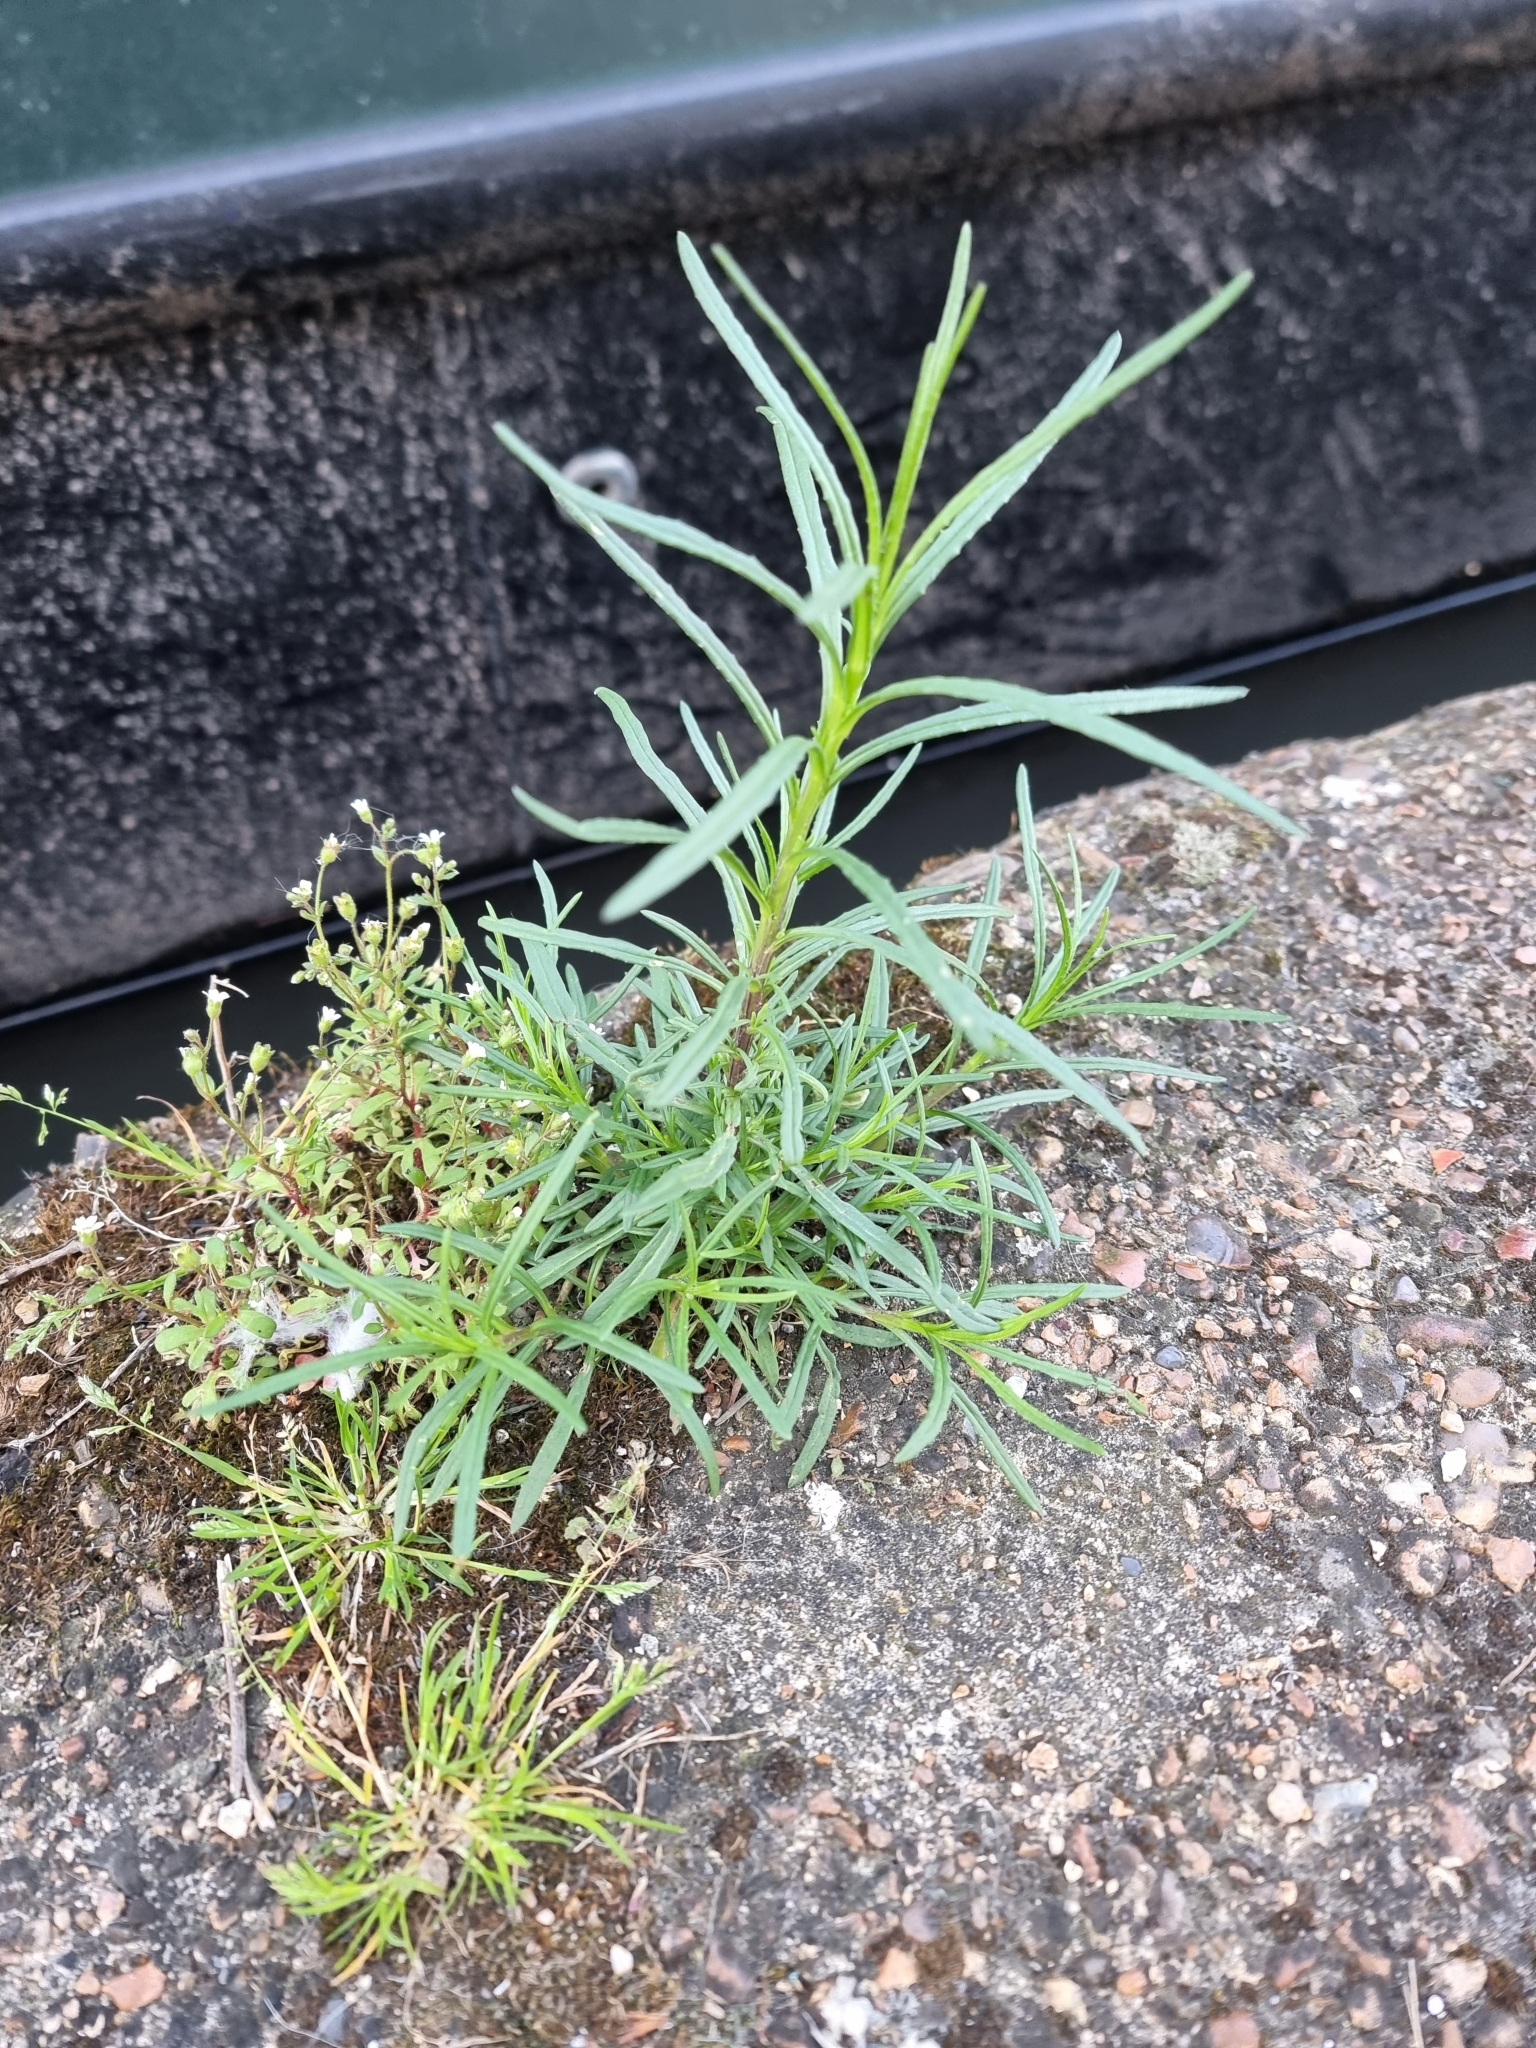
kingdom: Plantae
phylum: Tracheophyta
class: Magnoliopsida
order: Asterales
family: Asteraceae
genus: Senecio
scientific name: Senecio inaequidens
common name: Narrow-leaved ragwort
